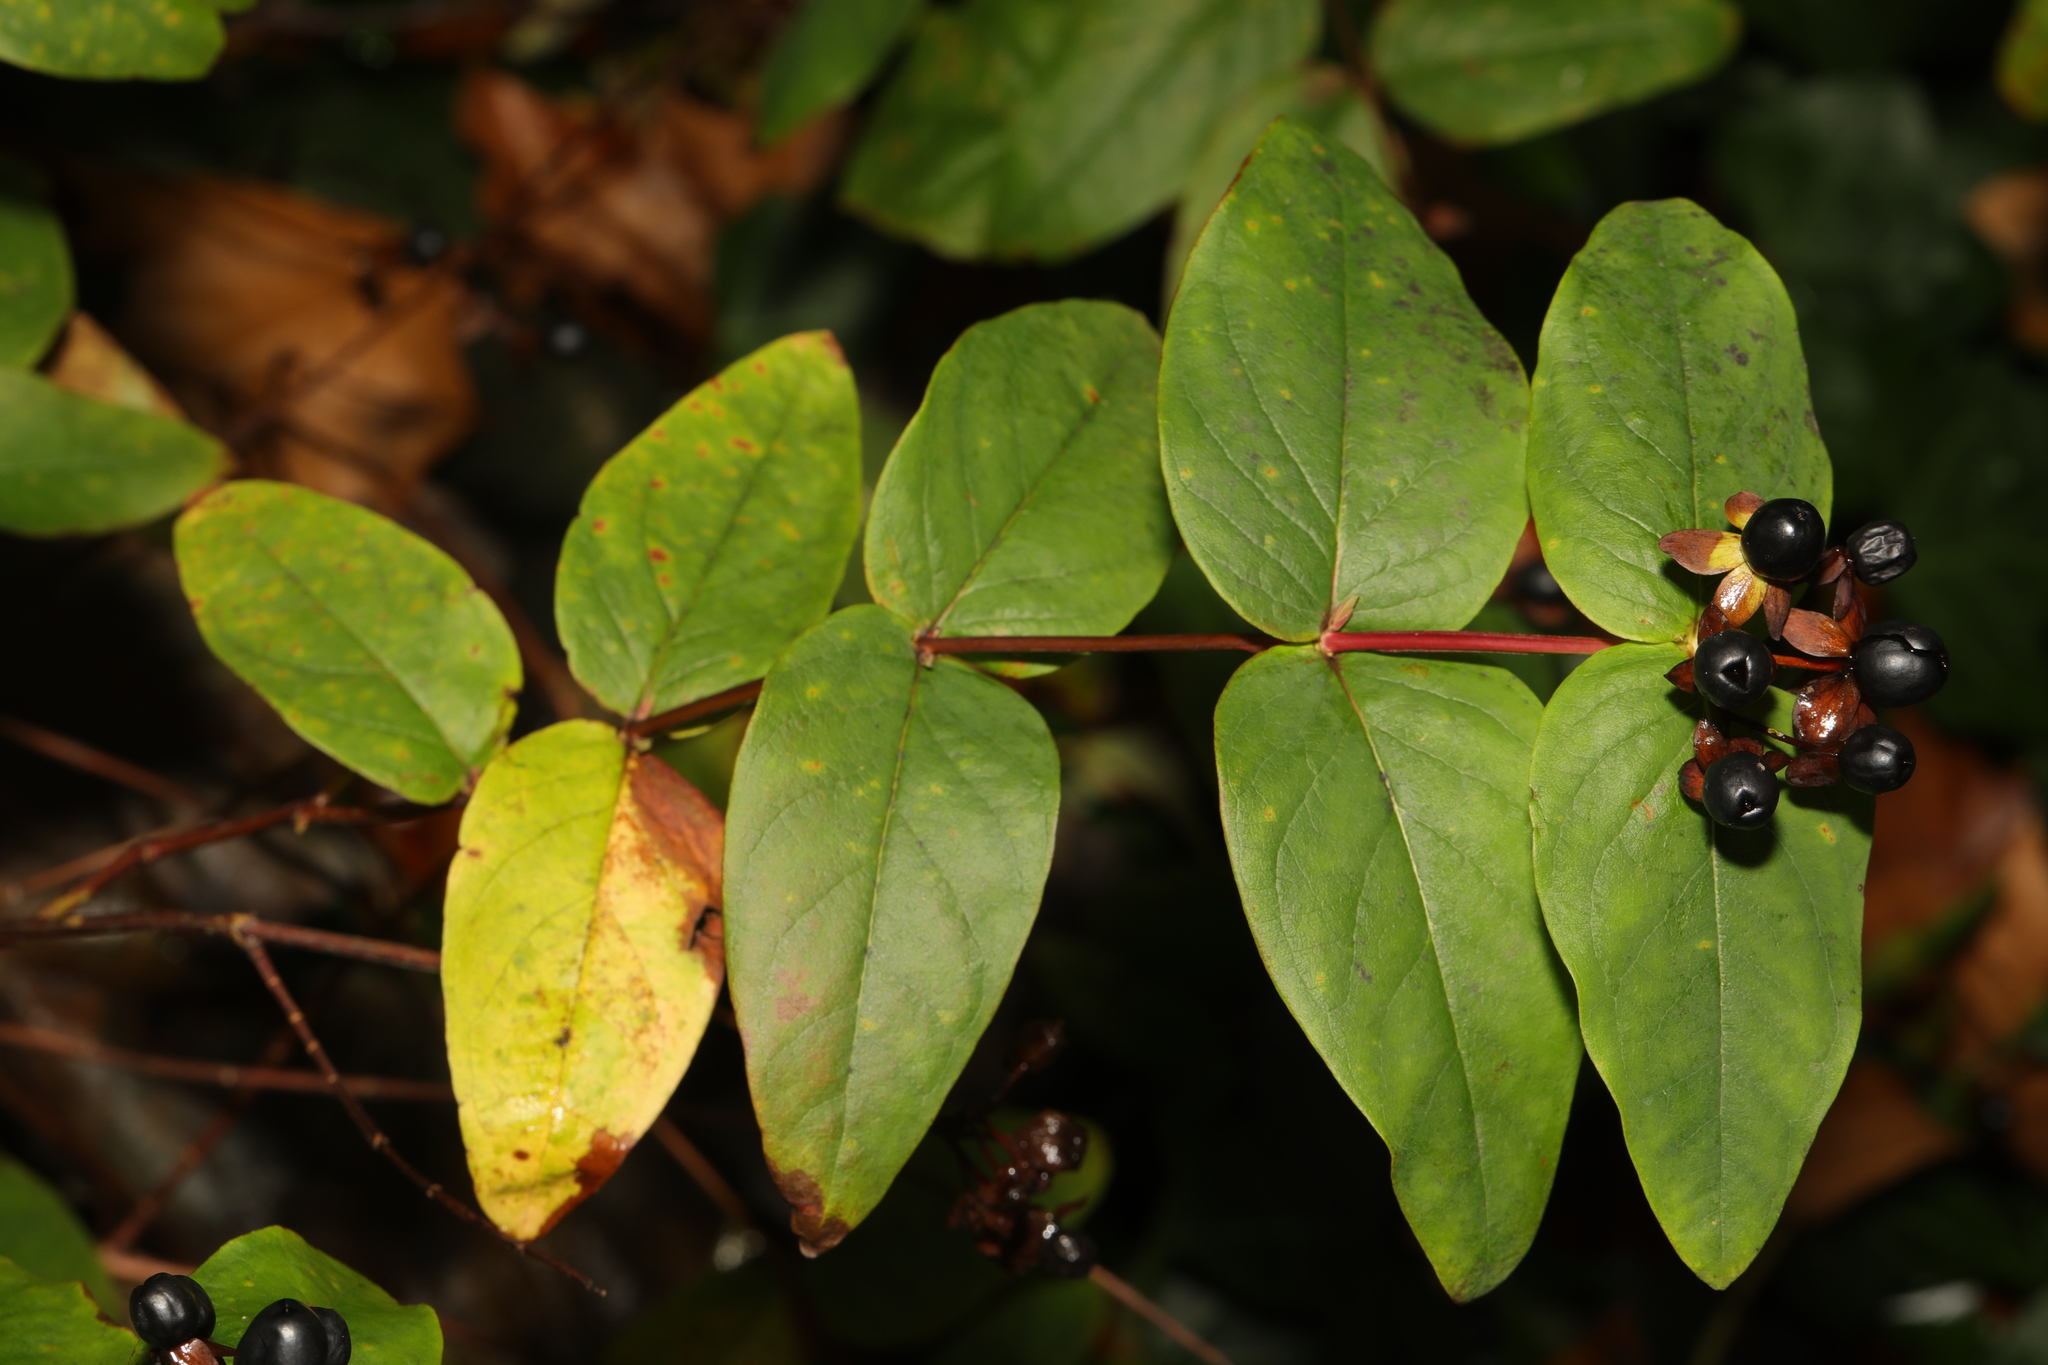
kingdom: Plantae
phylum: Tracheophyta
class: Magnoliopsida
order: Malpighiales
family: Hypericaceae
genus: Hypericum
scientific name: Hypericum androsaemum
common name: Sweet-amber
